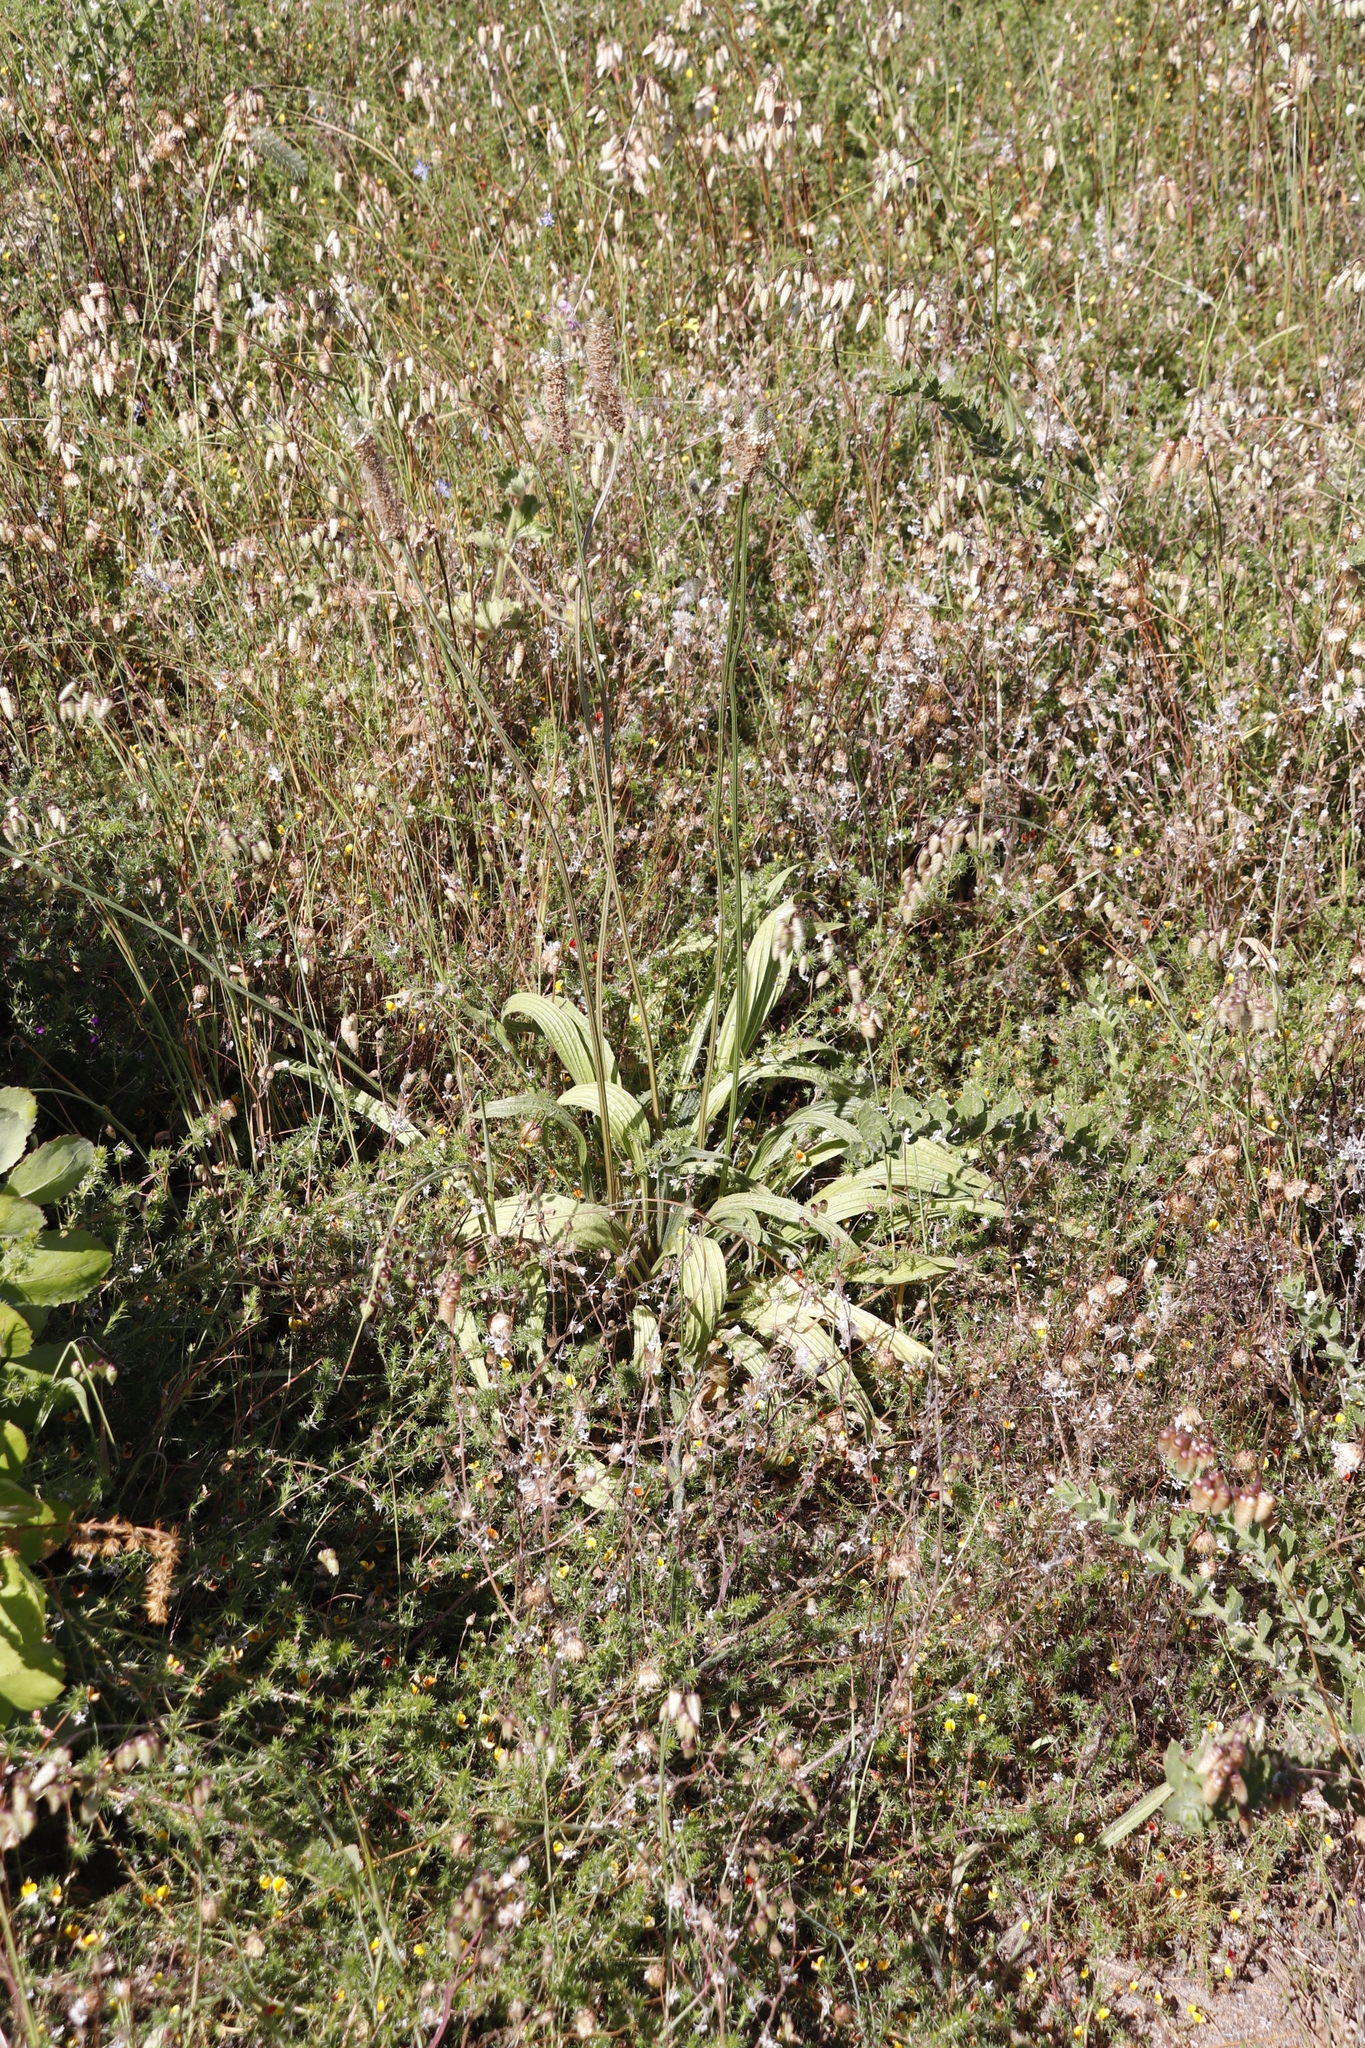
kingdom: Plantae
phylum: Tracheophyta
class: Magnoliopsida
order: Lamiales
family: Plantaginaceae
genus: Plantago
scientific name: Plantago lanceolata
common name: Ribwort plantain
